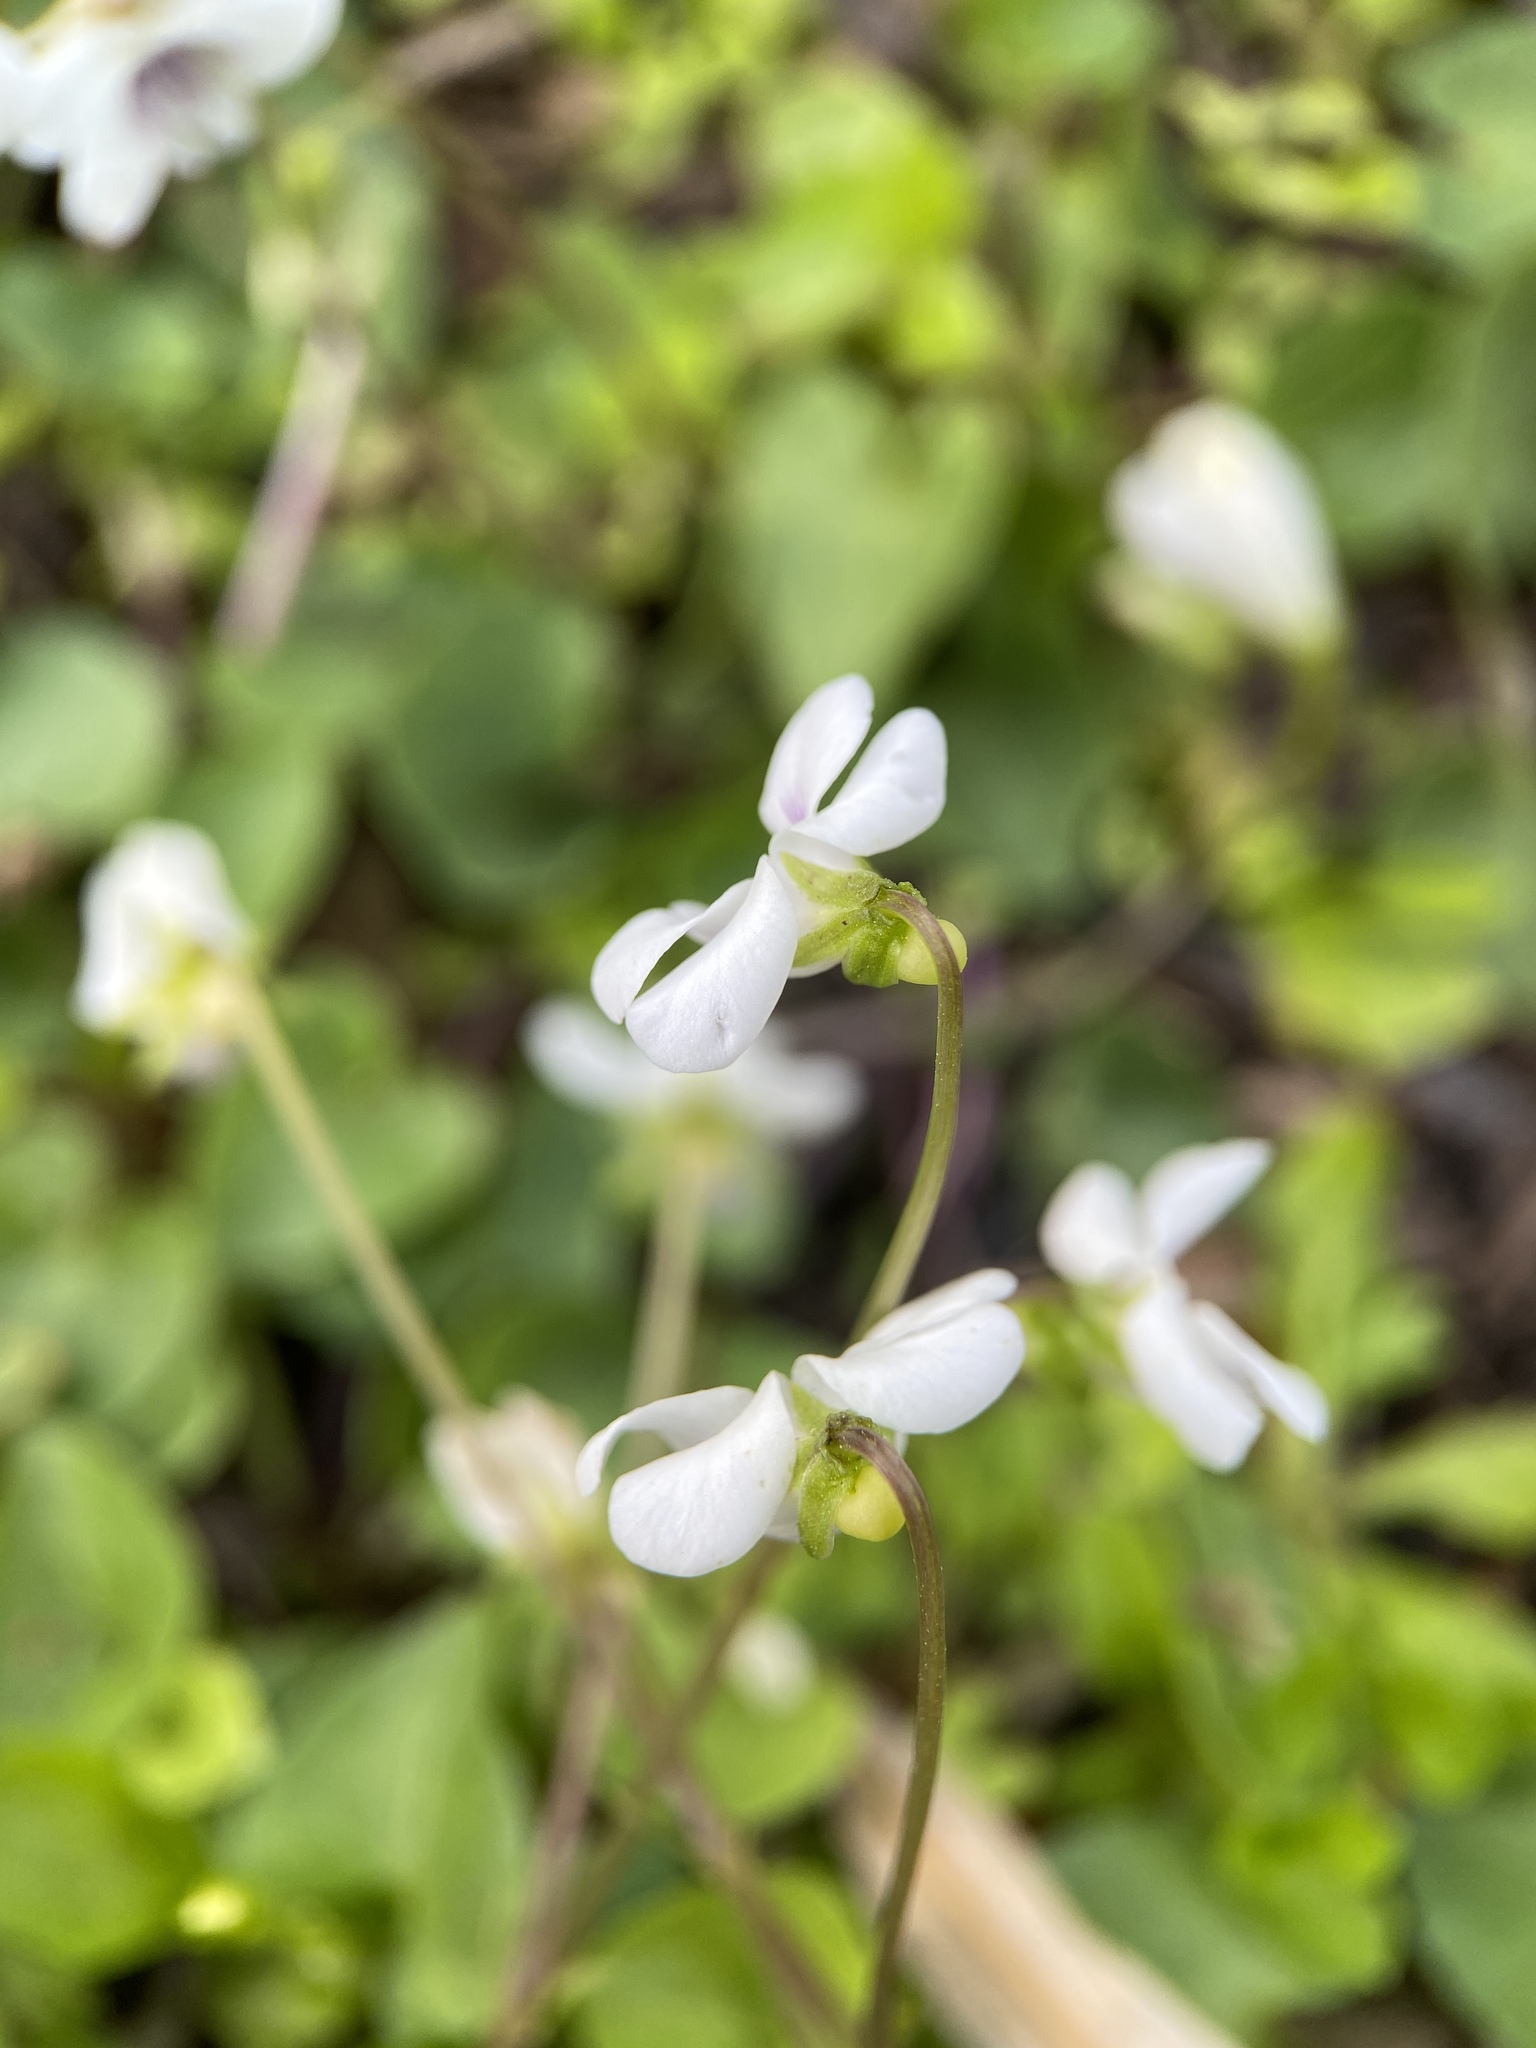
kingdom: Plantae
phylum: Tracheophyta
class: Magnoliopsida
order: Malpighiales
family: Violaceae
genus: Viola
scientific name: Viola
